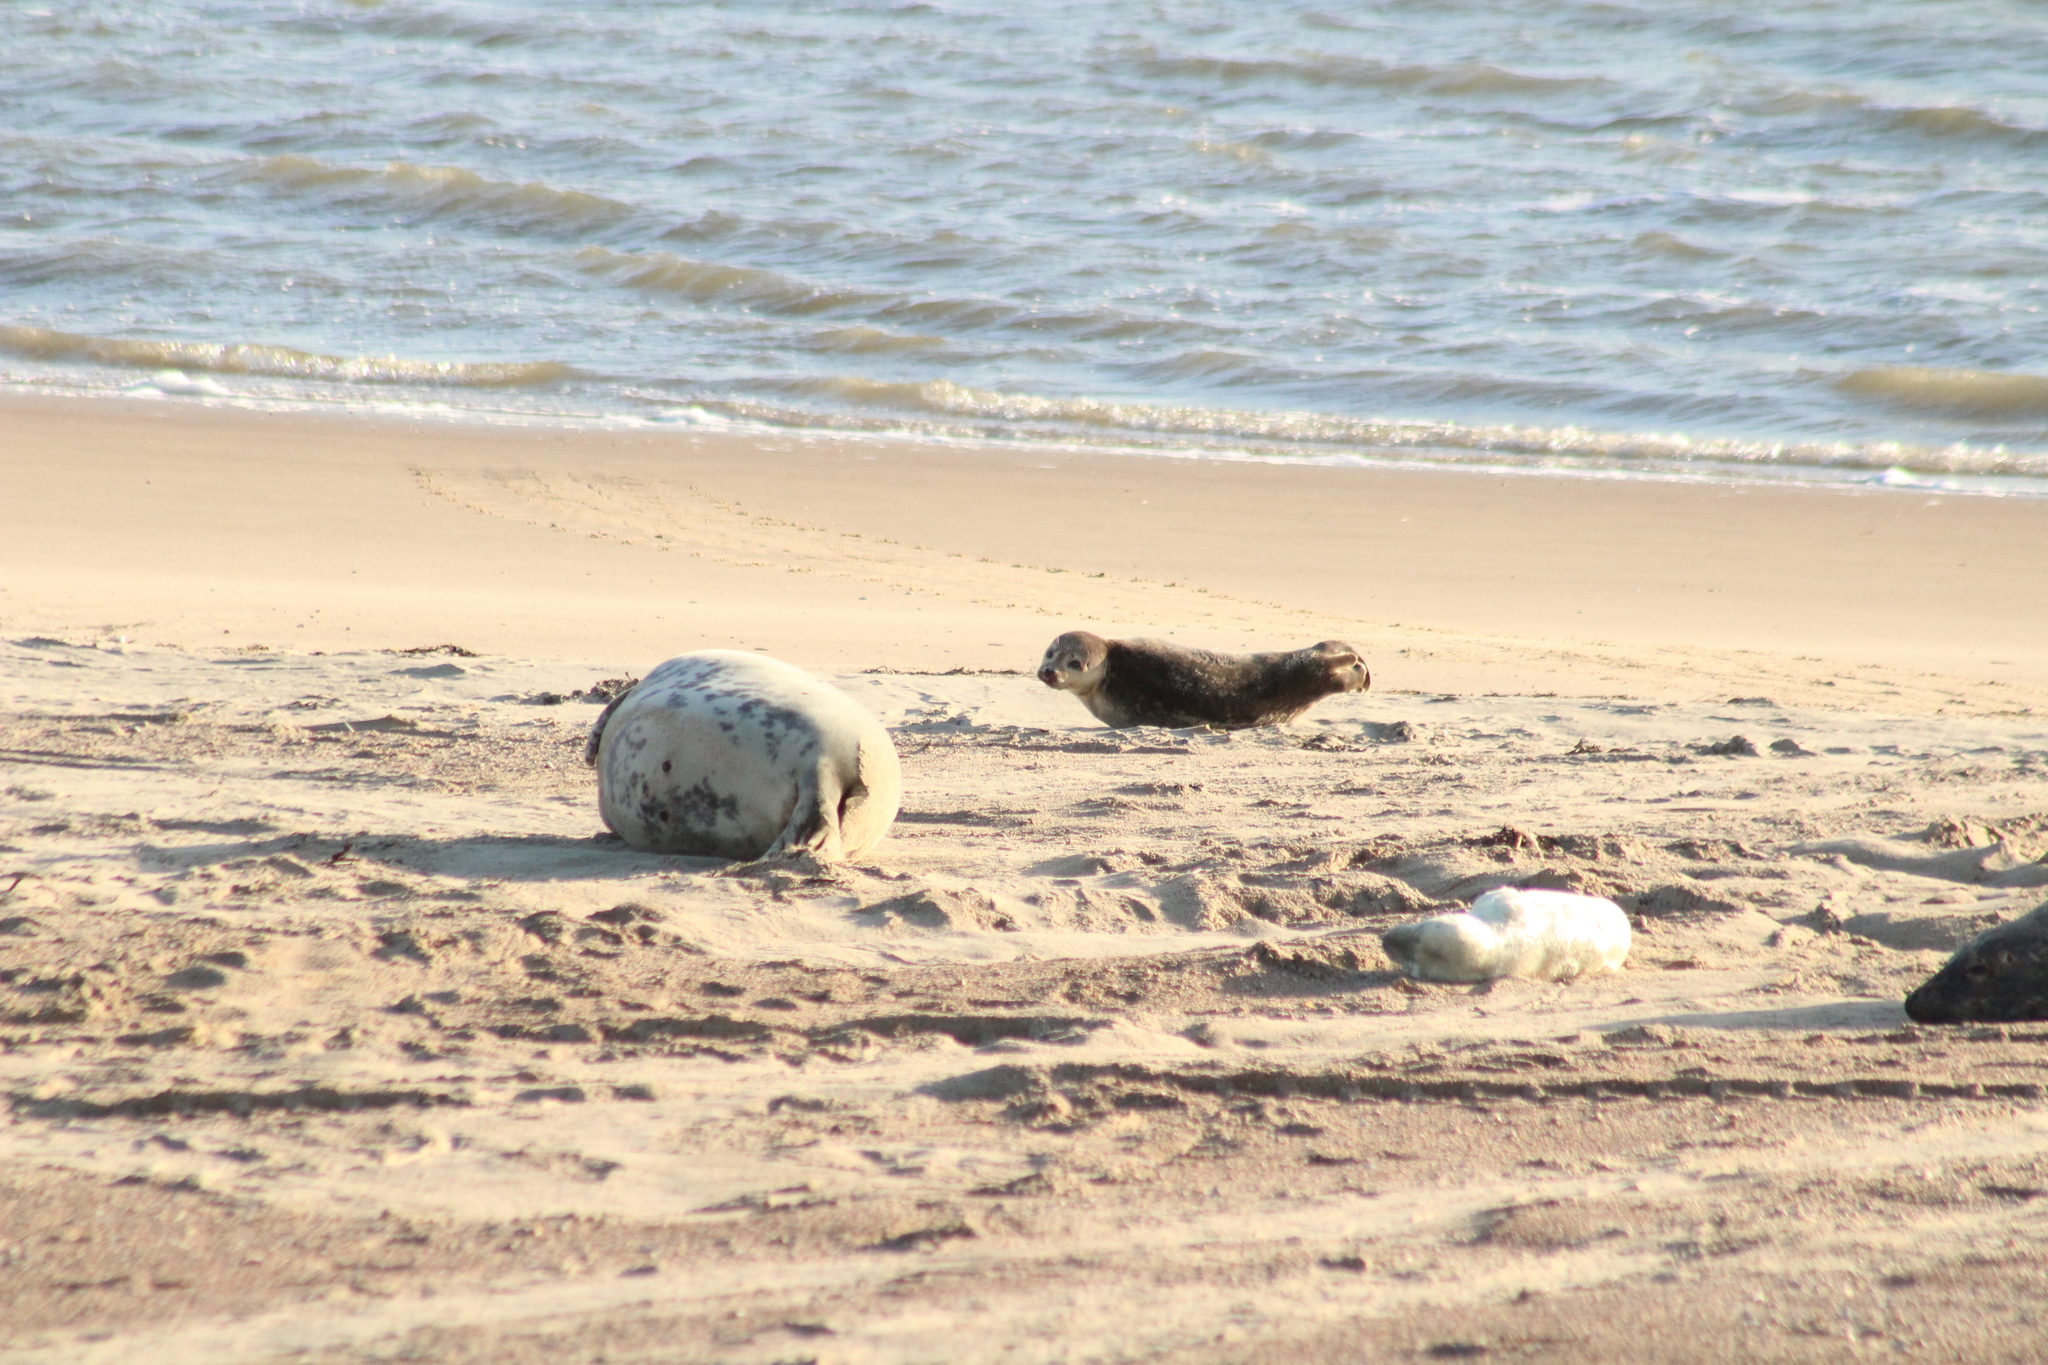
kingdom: Animalia
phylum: Chordata
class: Mammalia
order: Carnivora
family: Phocidae
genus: Phoca
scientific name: Phoca vitulina
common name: Harbor seal
